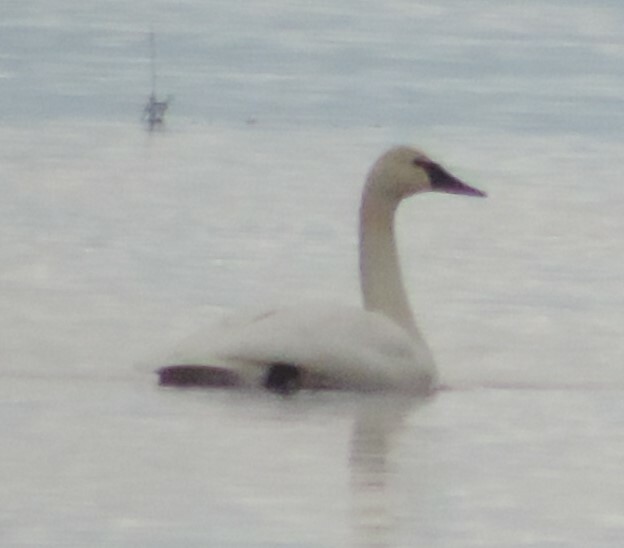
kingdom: Animalia
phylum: Chordata
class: Aves
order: Anseriformes
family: Anatidae
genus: Cygnus
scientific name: Cygnus buccinator
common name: Trumpeter swan
